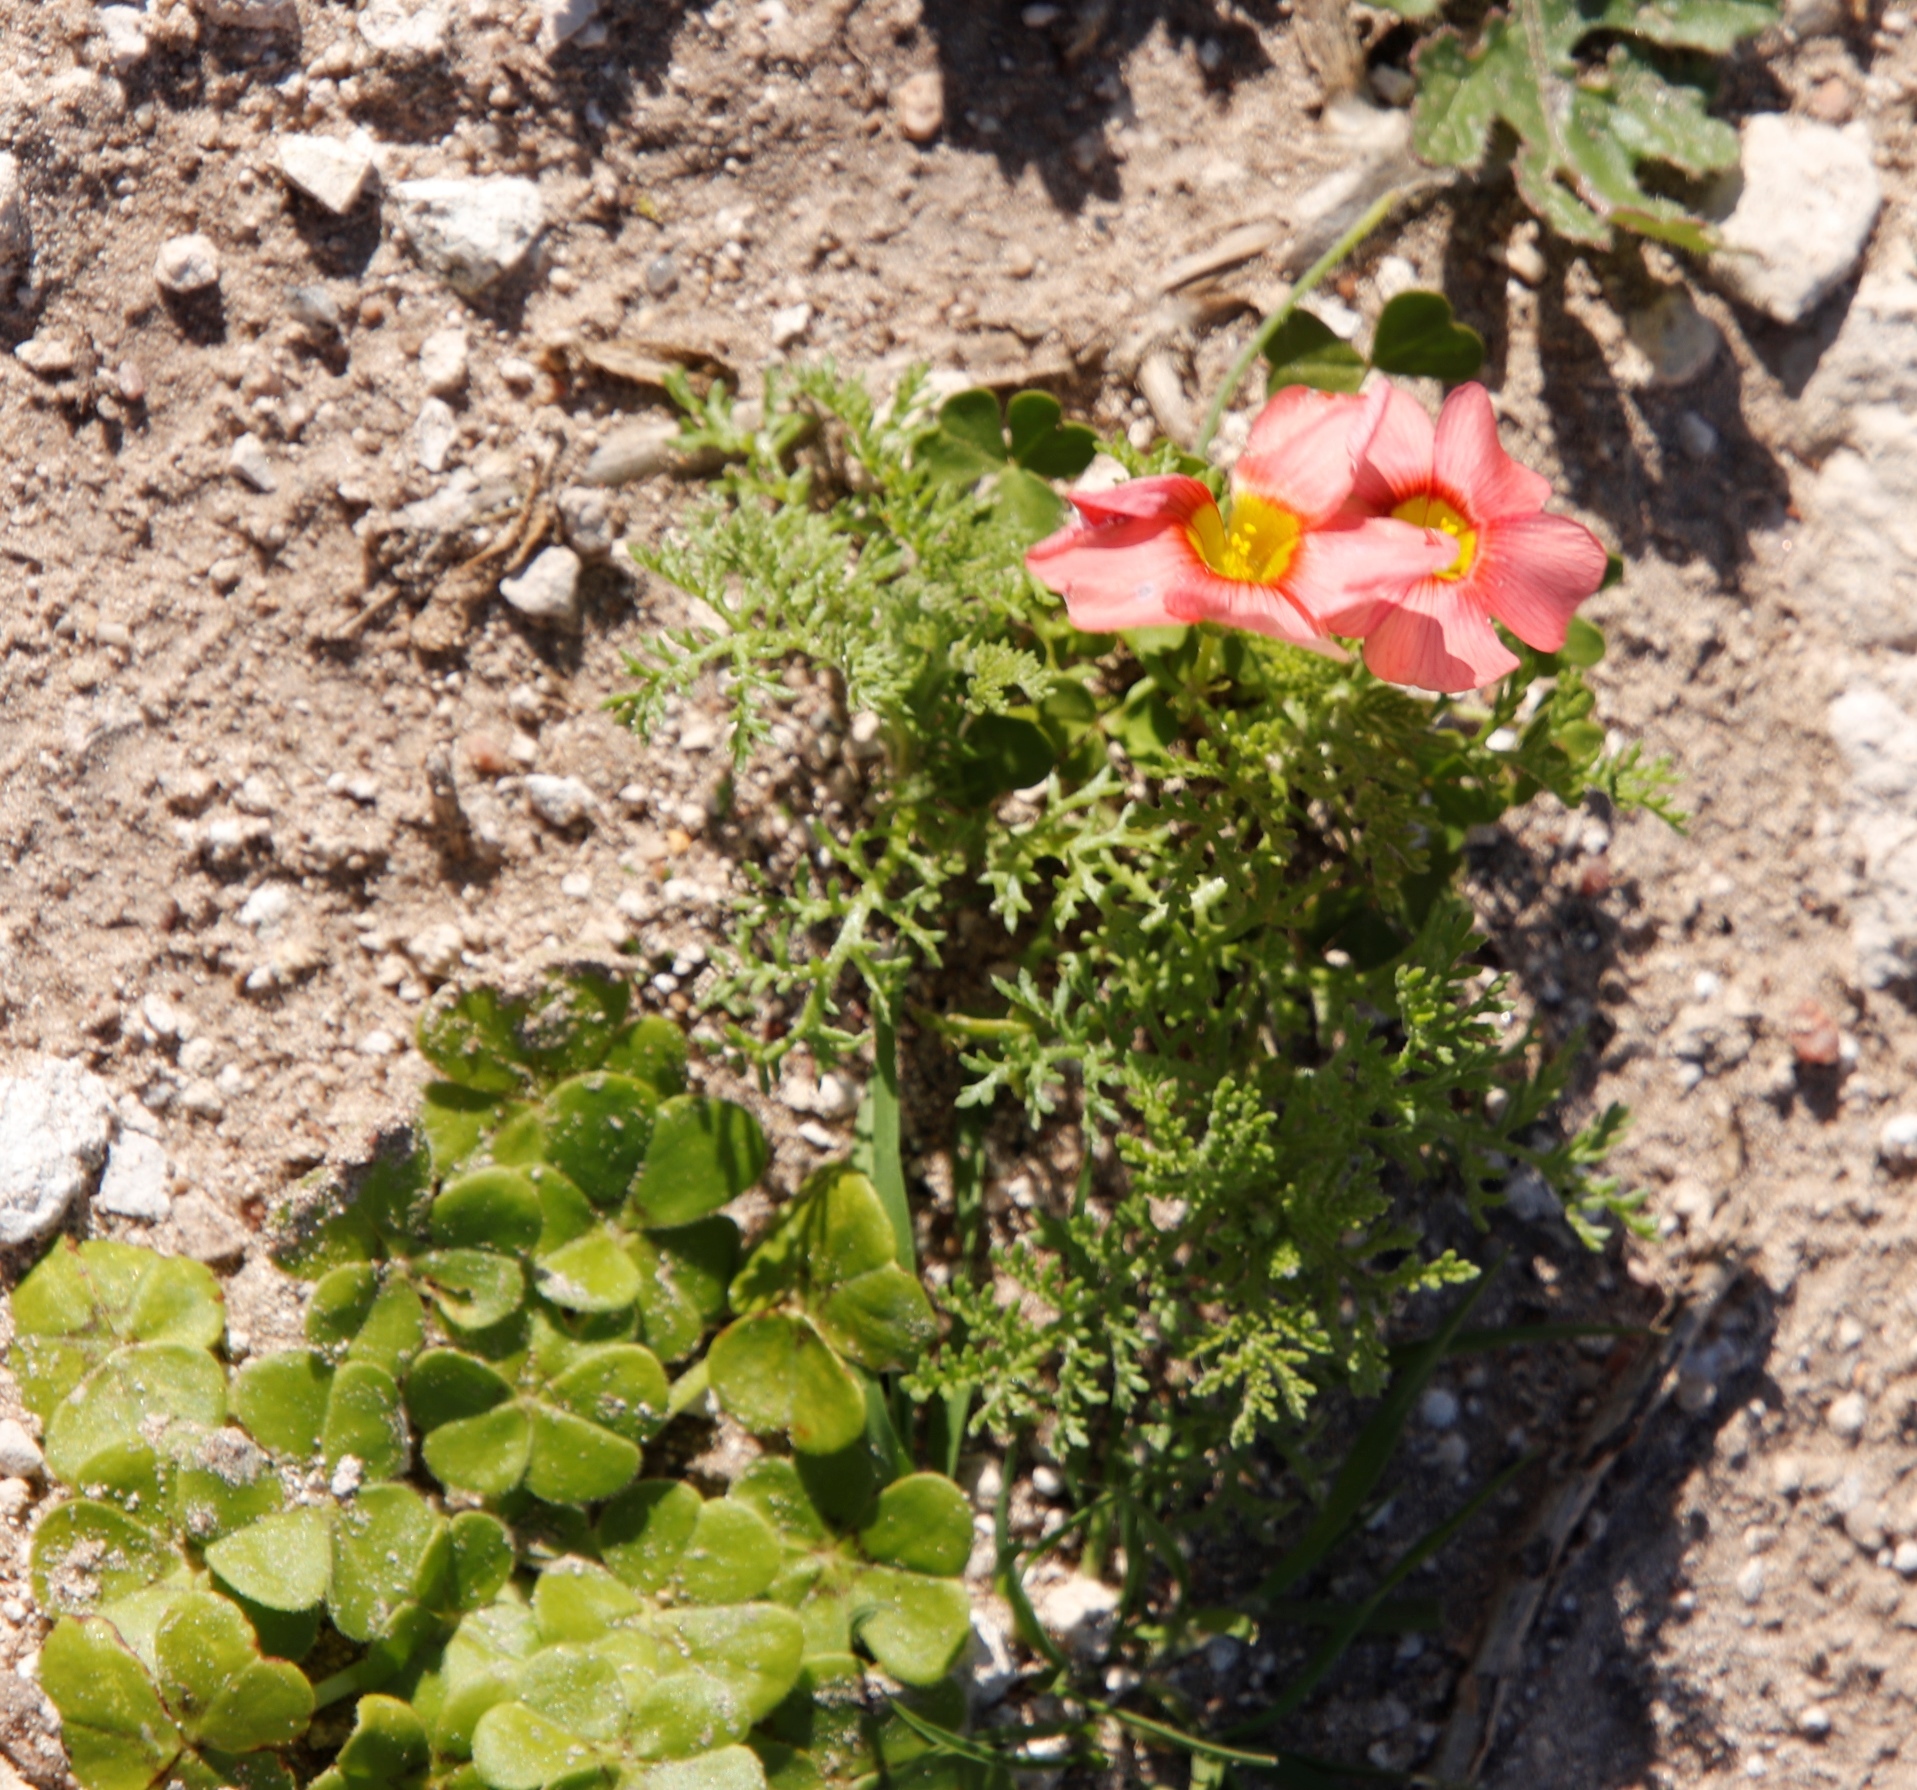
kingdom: Plantae
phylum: Tracheophyta
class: Magnoliopsida
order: Oxalidales
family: Oxalidaceae
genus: Oxalis
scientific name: Oxalis obtusa
